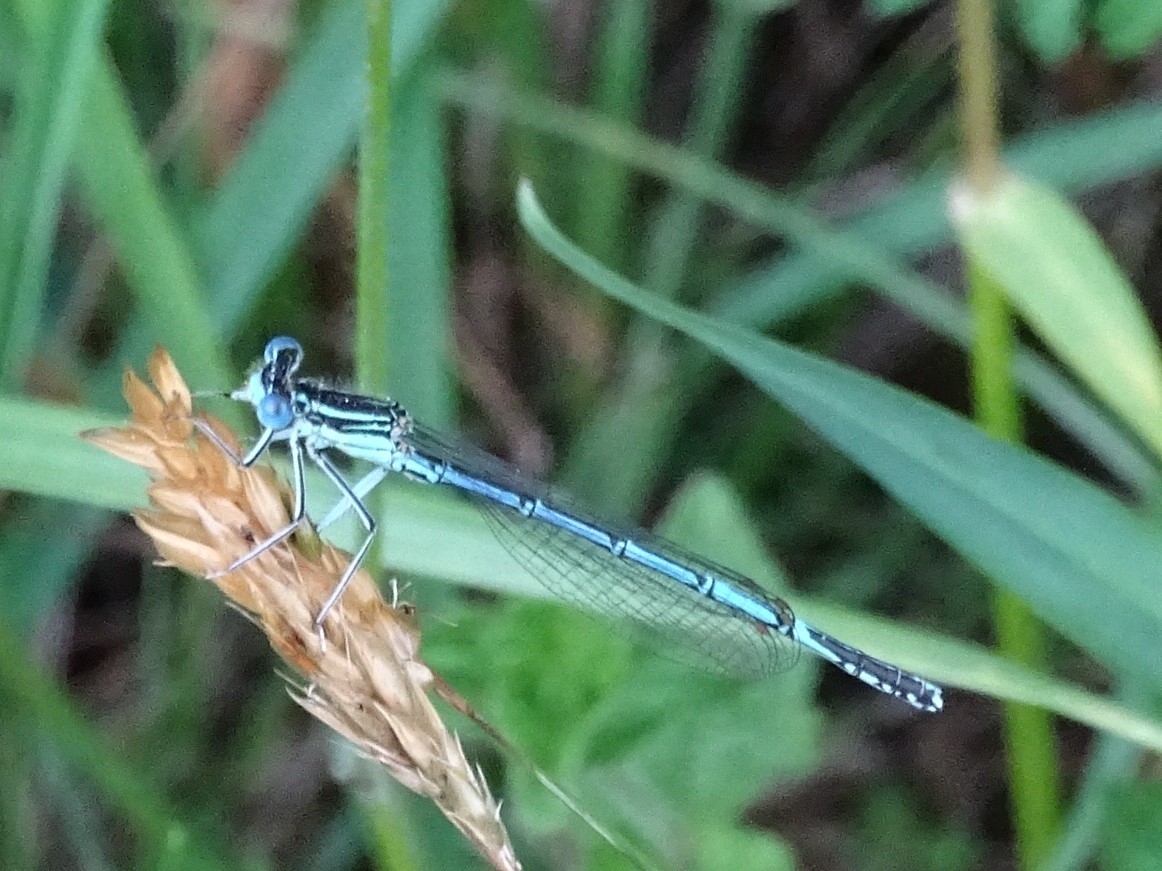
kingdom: Animalia
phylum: Arthropoda
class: Insecta
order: Odonata
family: Platycnemididae
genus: Platycnemis
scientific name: Platycnemis pennipes
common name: White-legged damselfly
